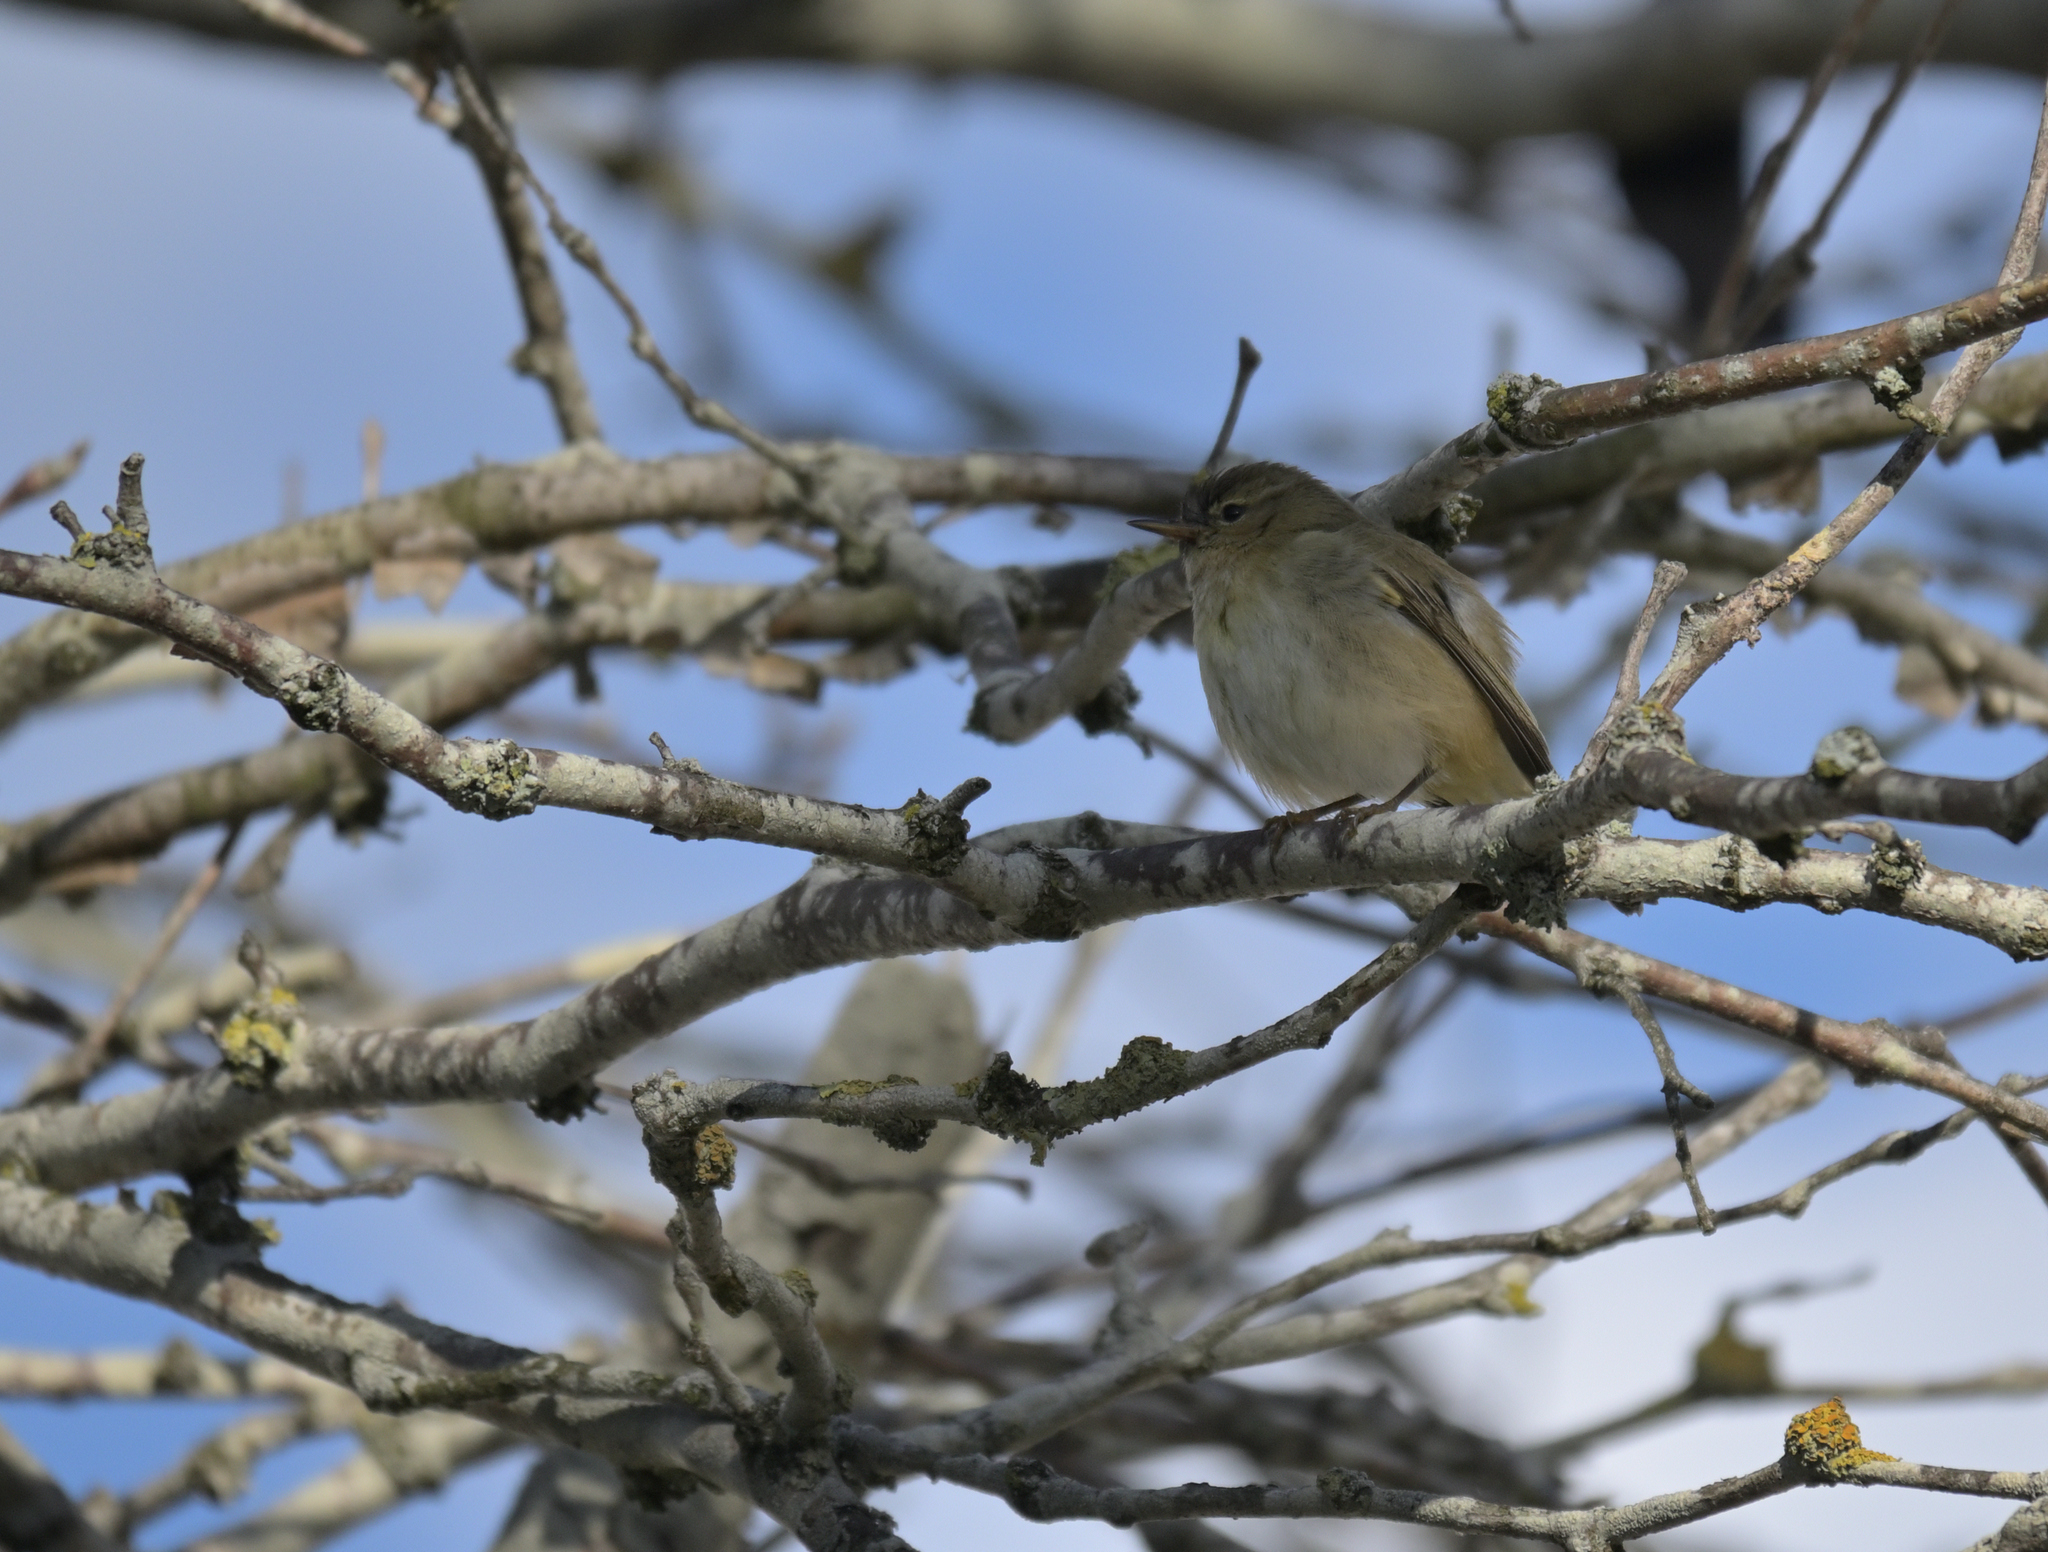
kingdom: Animalia
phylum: Chordata
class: Aves
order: Passeriformes
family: Phylloscopidae
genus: Phylloscopus
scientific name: Phylloscopus collybita
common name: Common chiffchaff
